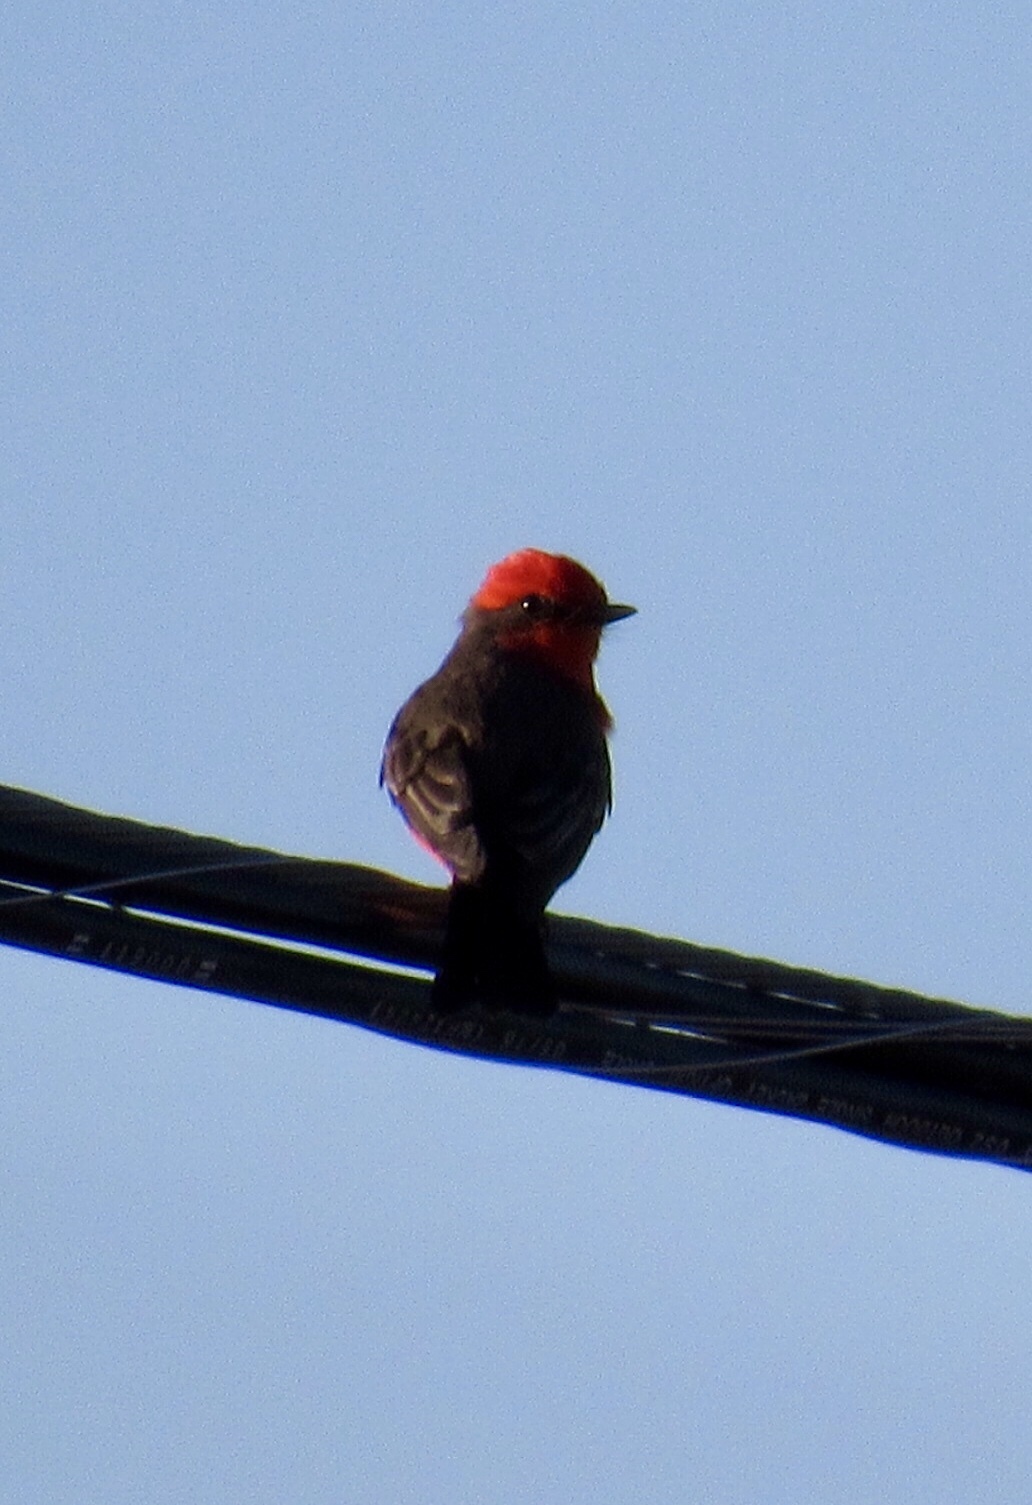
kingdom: Animalia
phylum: Chordata
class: Aves
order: Passeriformes
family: Tyrannidae
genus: Pyrocephalus
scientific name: Pyrocephalus rubinus
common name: Vermilion flycatcher
